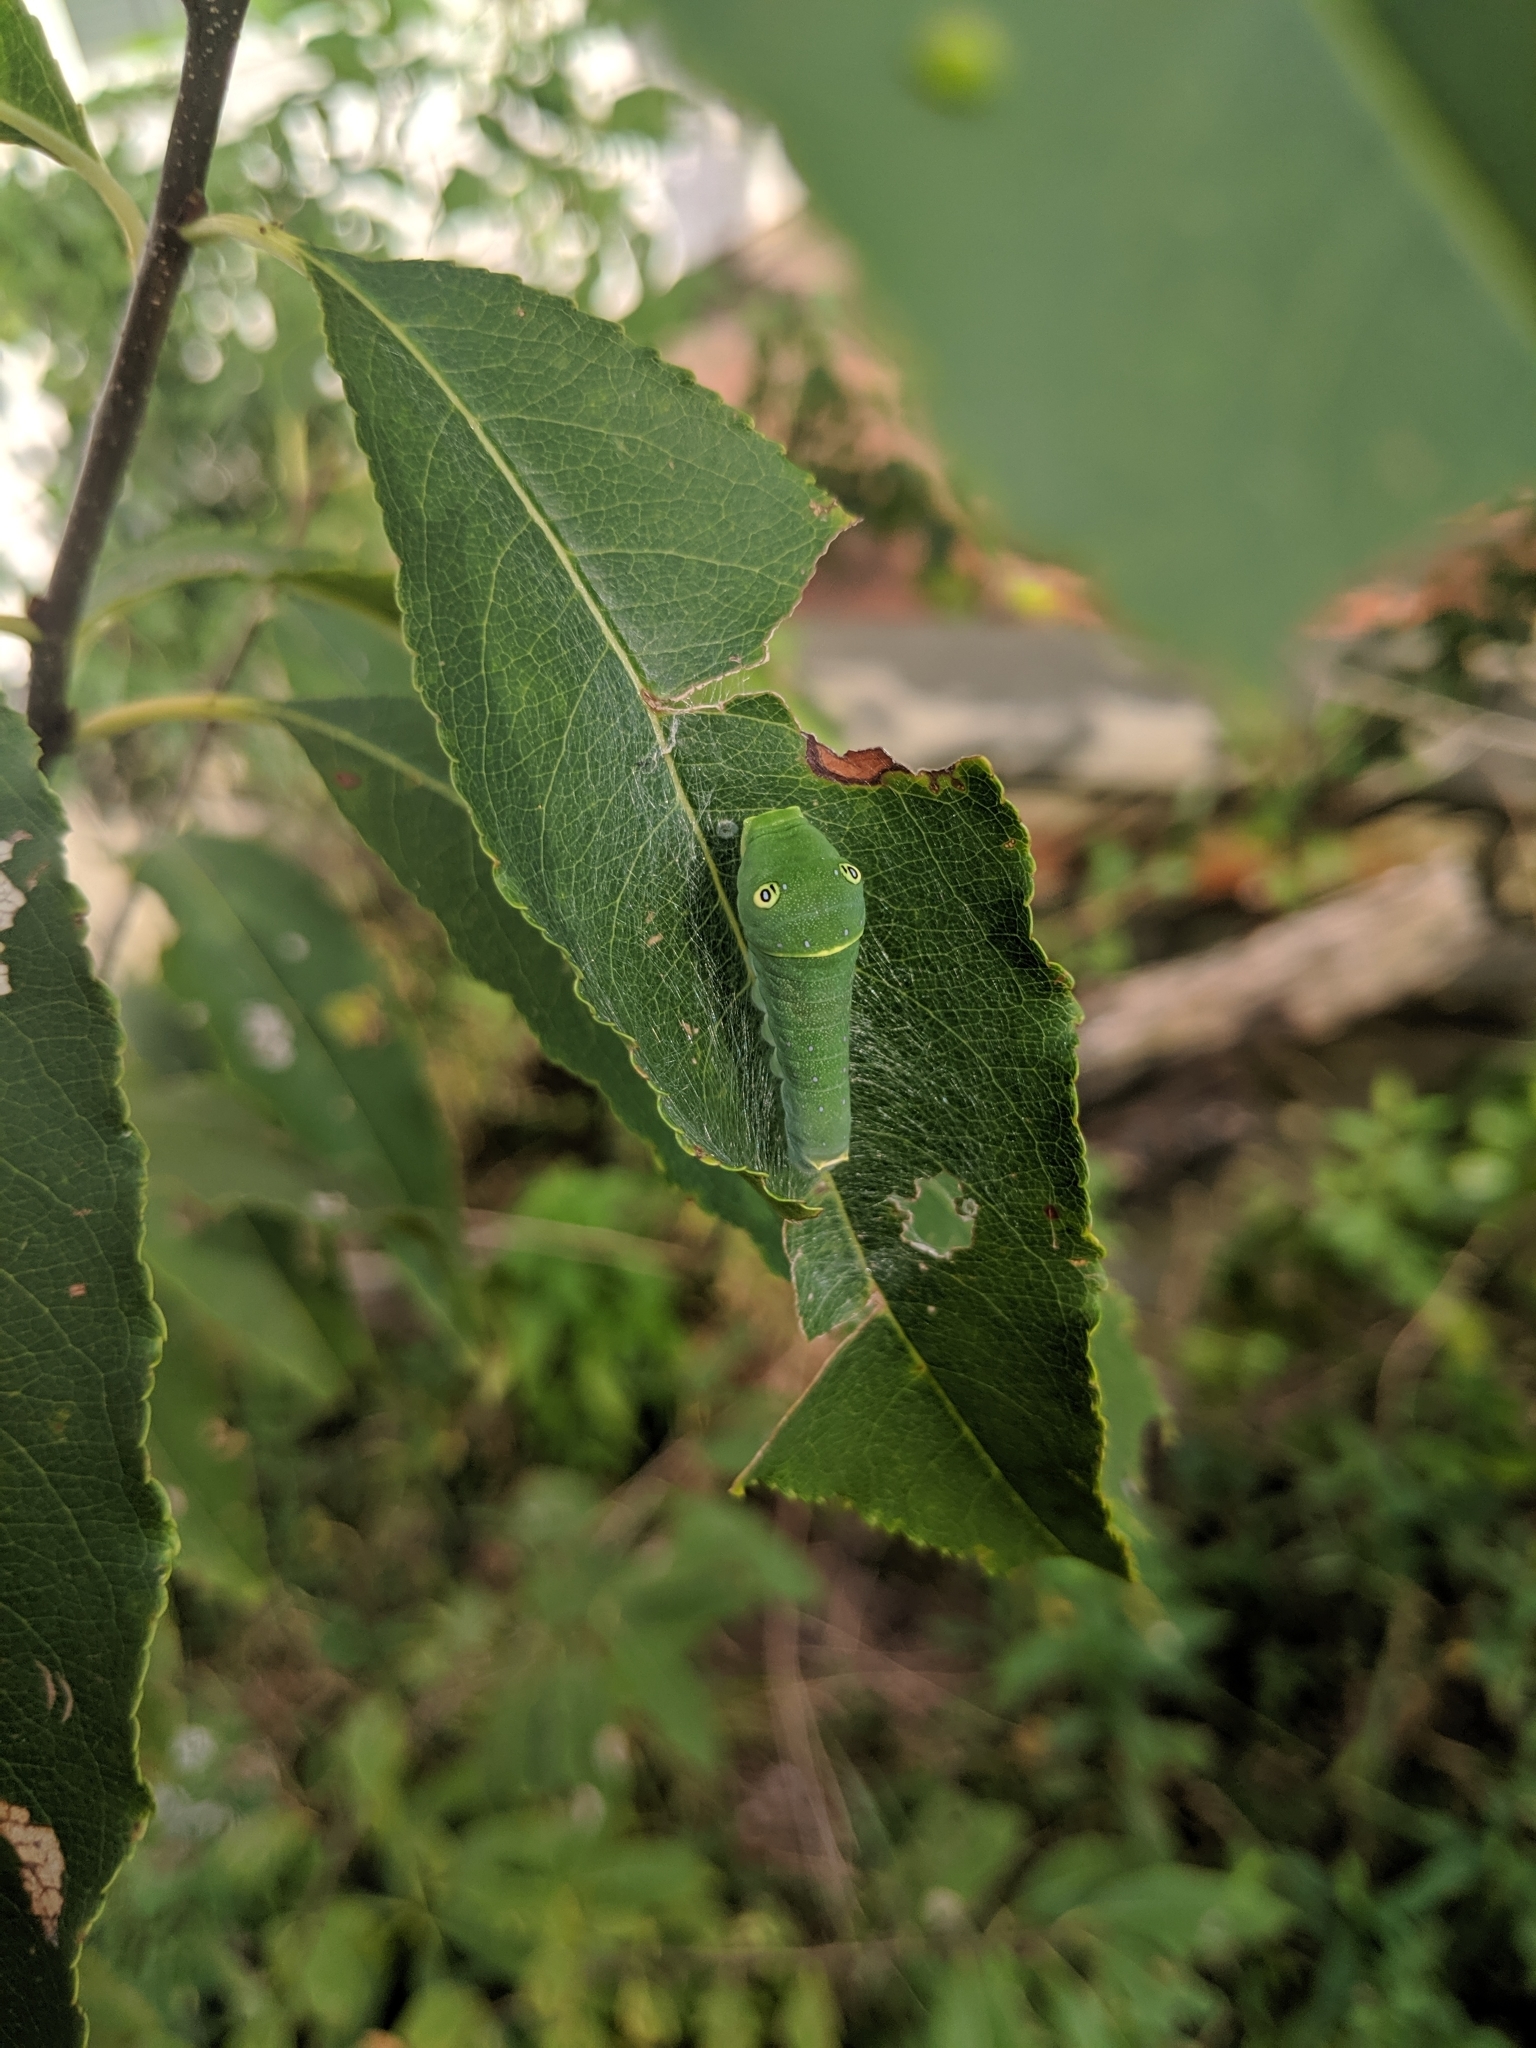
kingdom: Animalia
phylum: Arthropoda
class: Insecta
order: Lepidoptera
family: Papilionidae
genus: Papilio
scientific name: Papilio glaucus
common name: Tiger swallowtail
